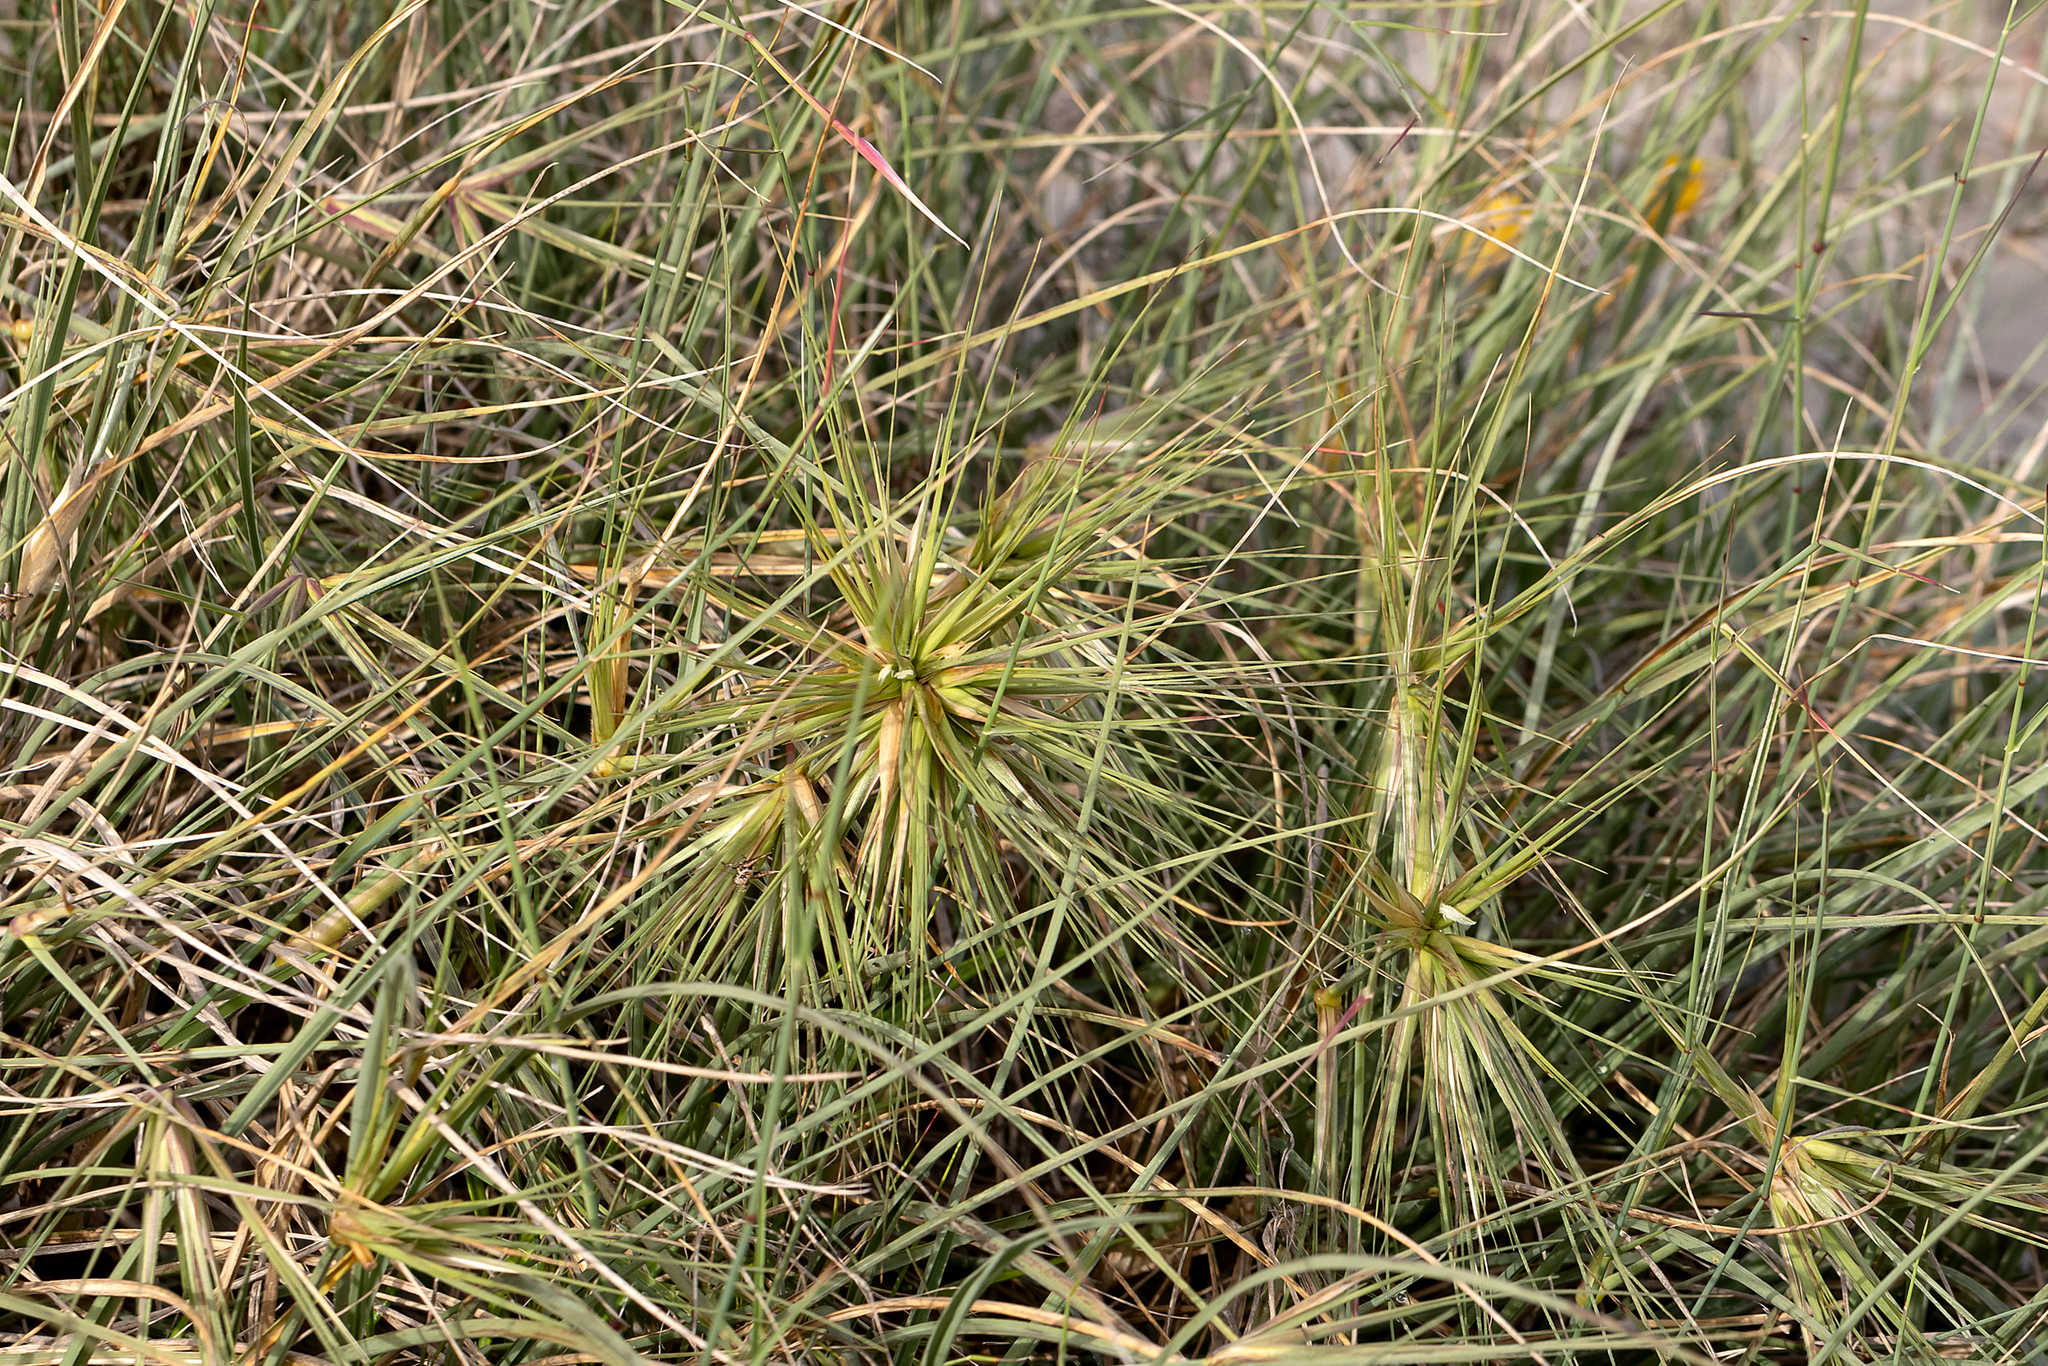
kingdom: Plantae
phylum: Tracheophyta
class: Liliopsida
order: Poales
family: Poaceae
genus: Spinifex
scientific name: Spinifex longifolius
